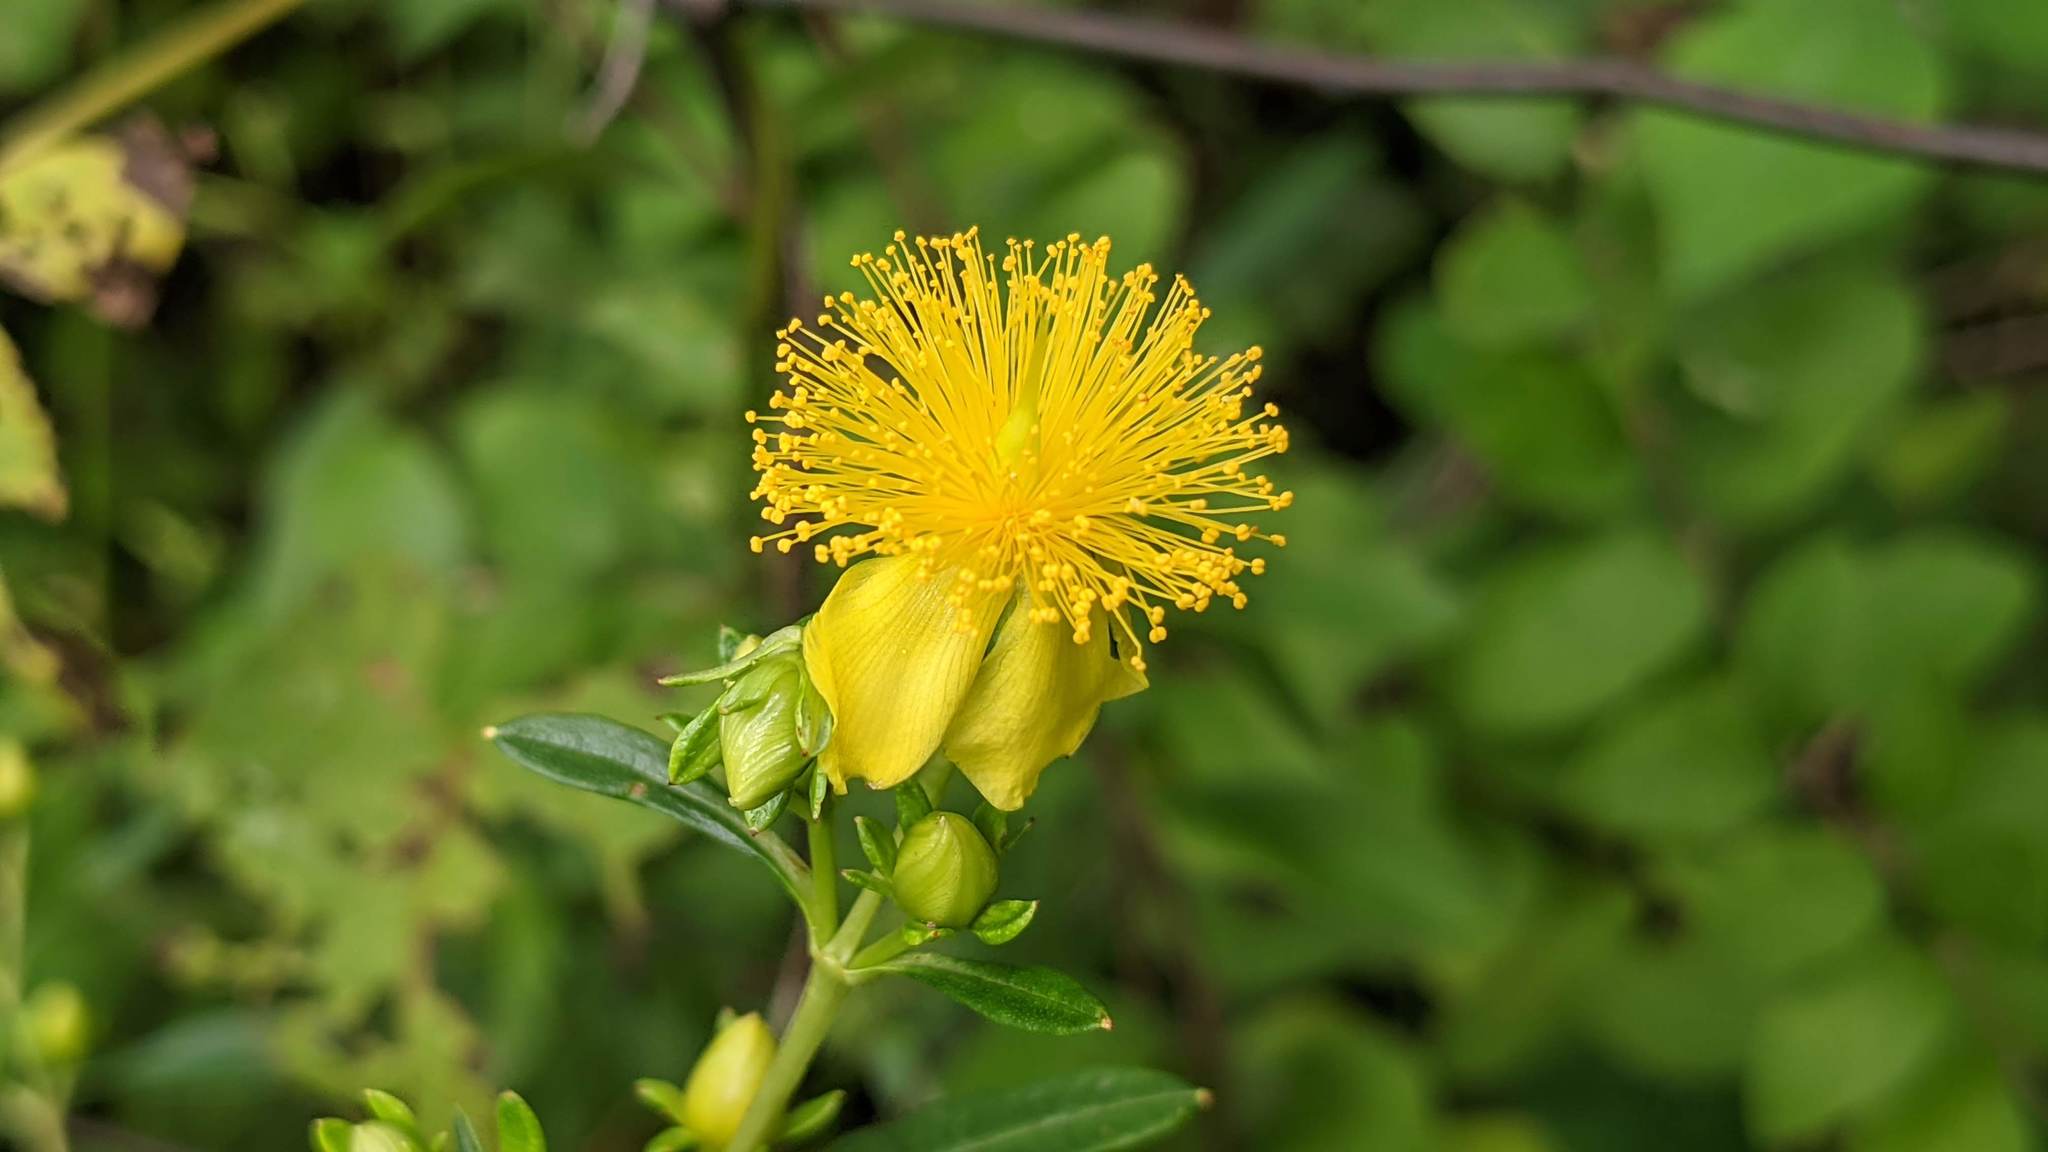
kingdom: Plantae
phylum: Tracheophyta
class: Magnoliopsida
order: Malpighiales
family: Hypericaceae
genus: Hypericum
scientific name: Hypericum prolificum
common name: Shrubby st. john's-wort
